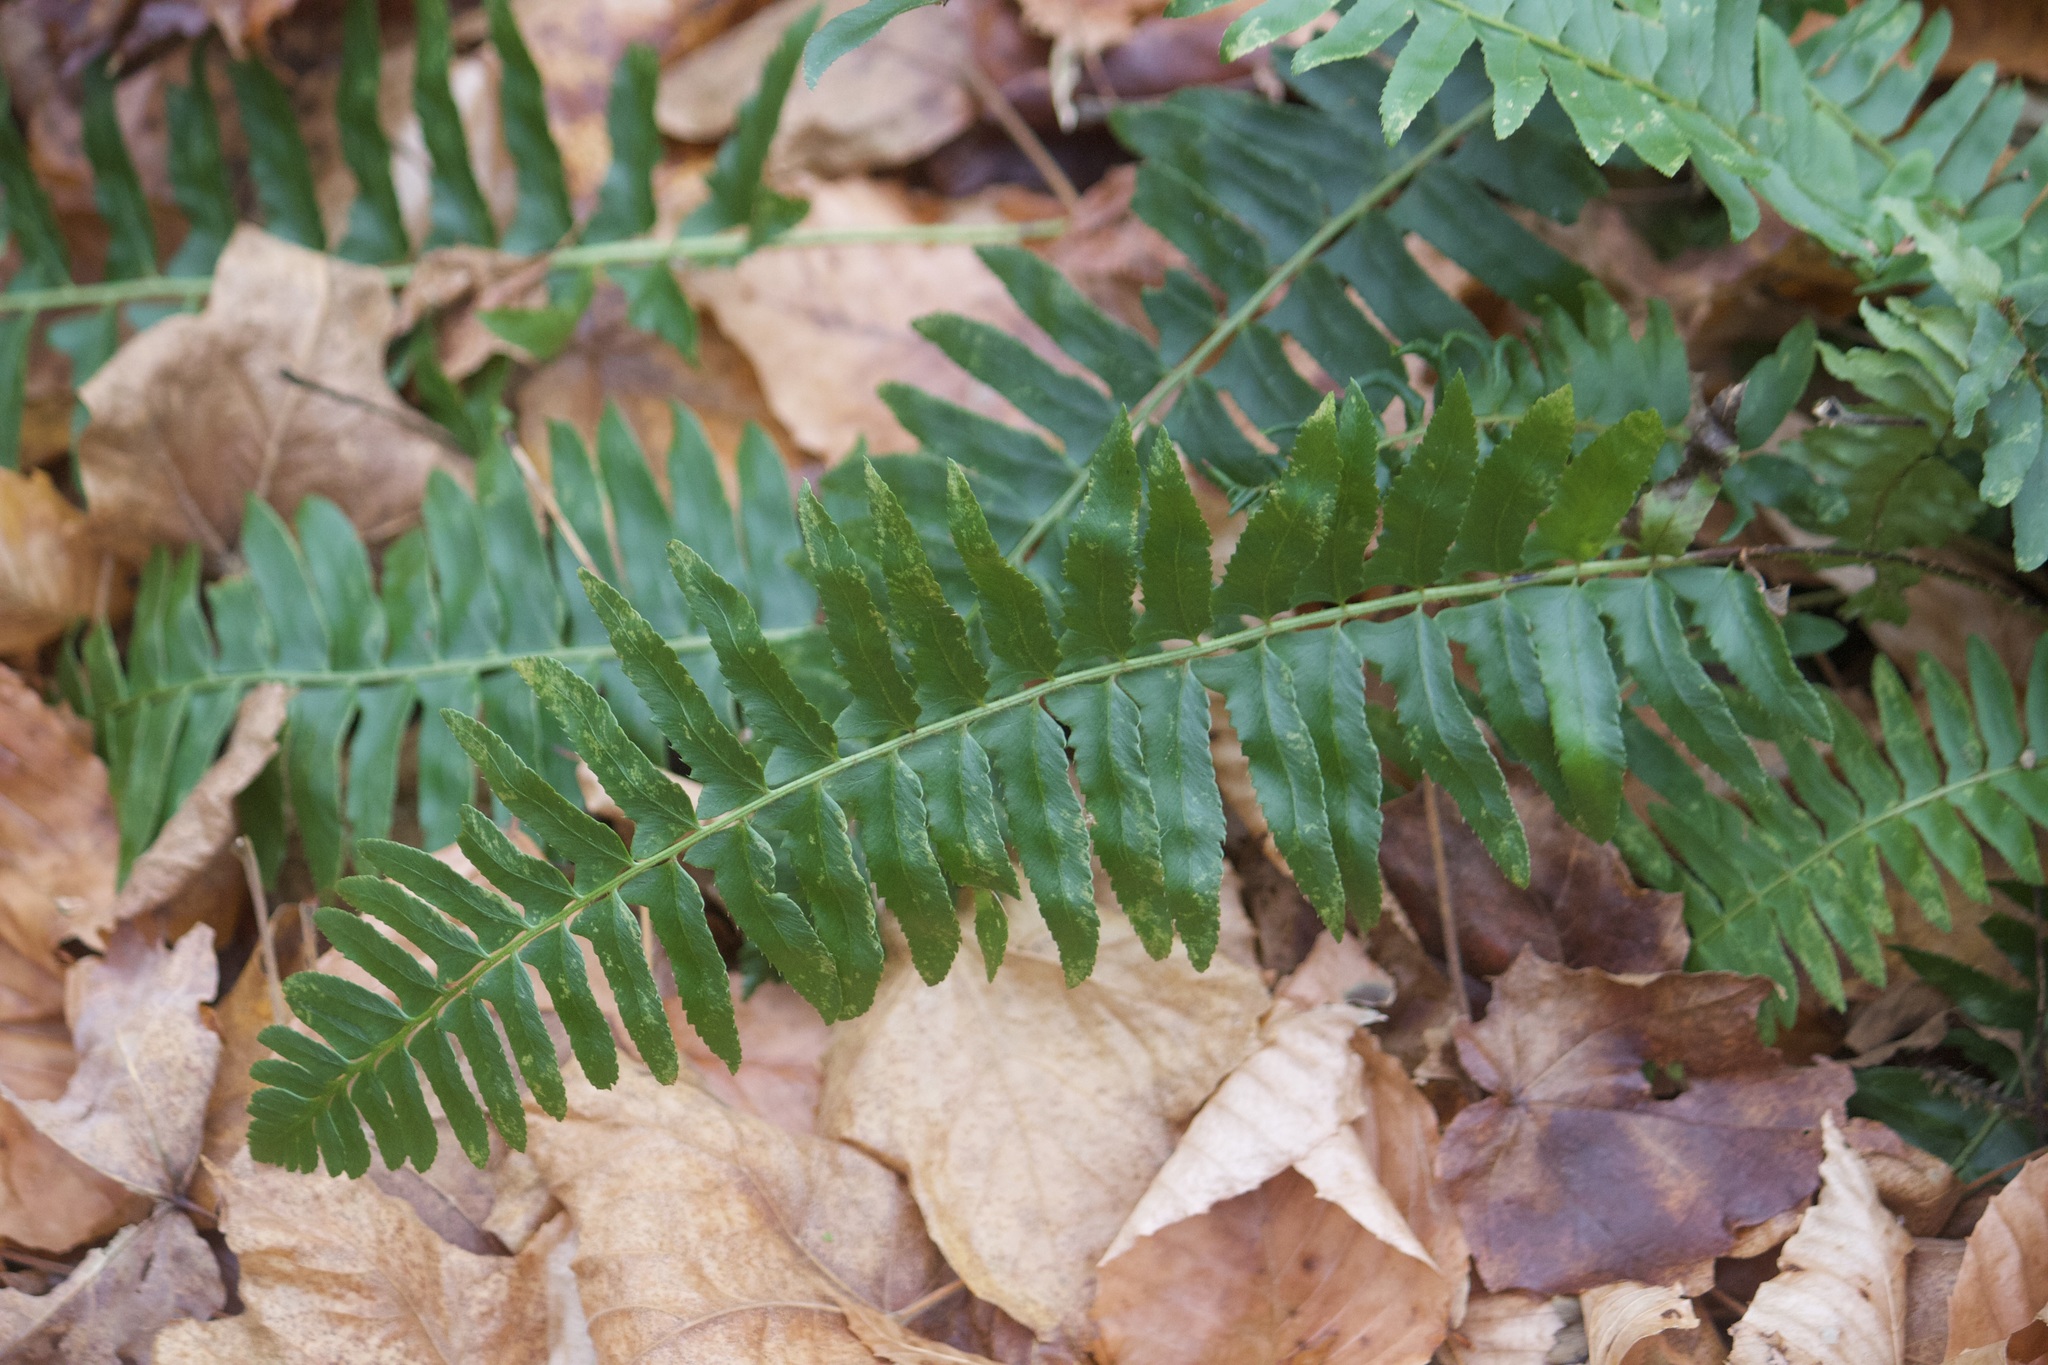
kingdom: Plantae
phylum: Tracheophyta
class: Polypodiopsida
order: Polypodiales
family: Dryopteridaceae
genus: Polystichum
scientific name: Polystichum acrostichoides
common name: Christmas fern
